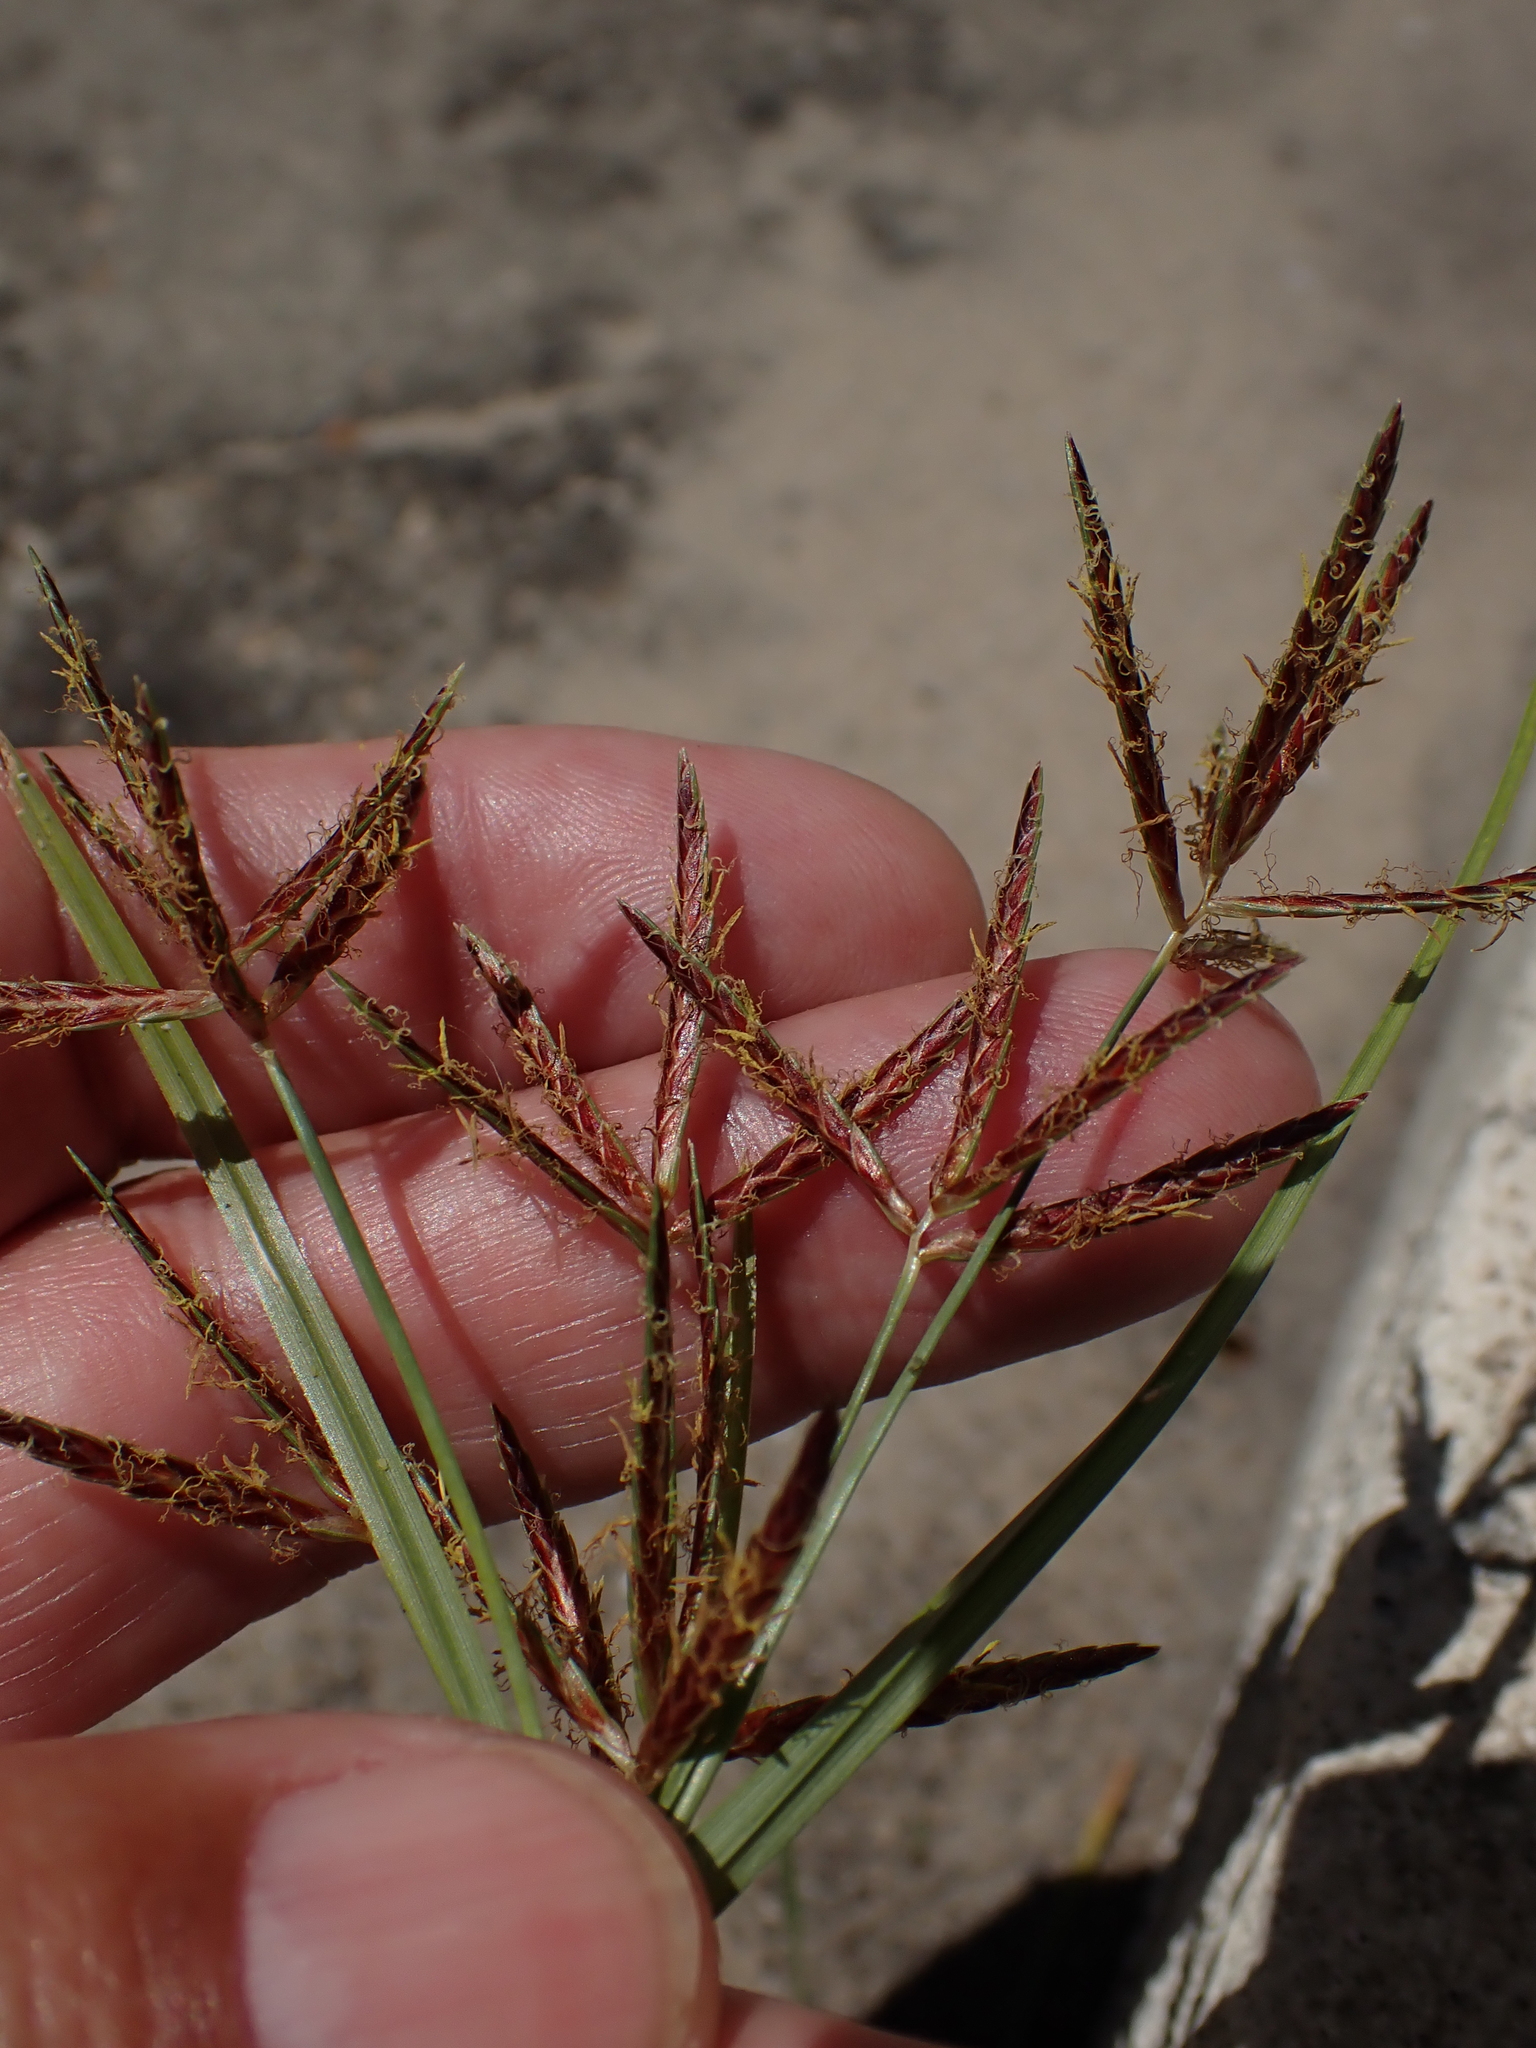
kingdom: Plantae
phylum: Tracheophyta
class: Liliopsida
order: Poales
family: Cyperaceae
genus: Cyperus
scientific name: Cyperus longus
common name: Galingale
